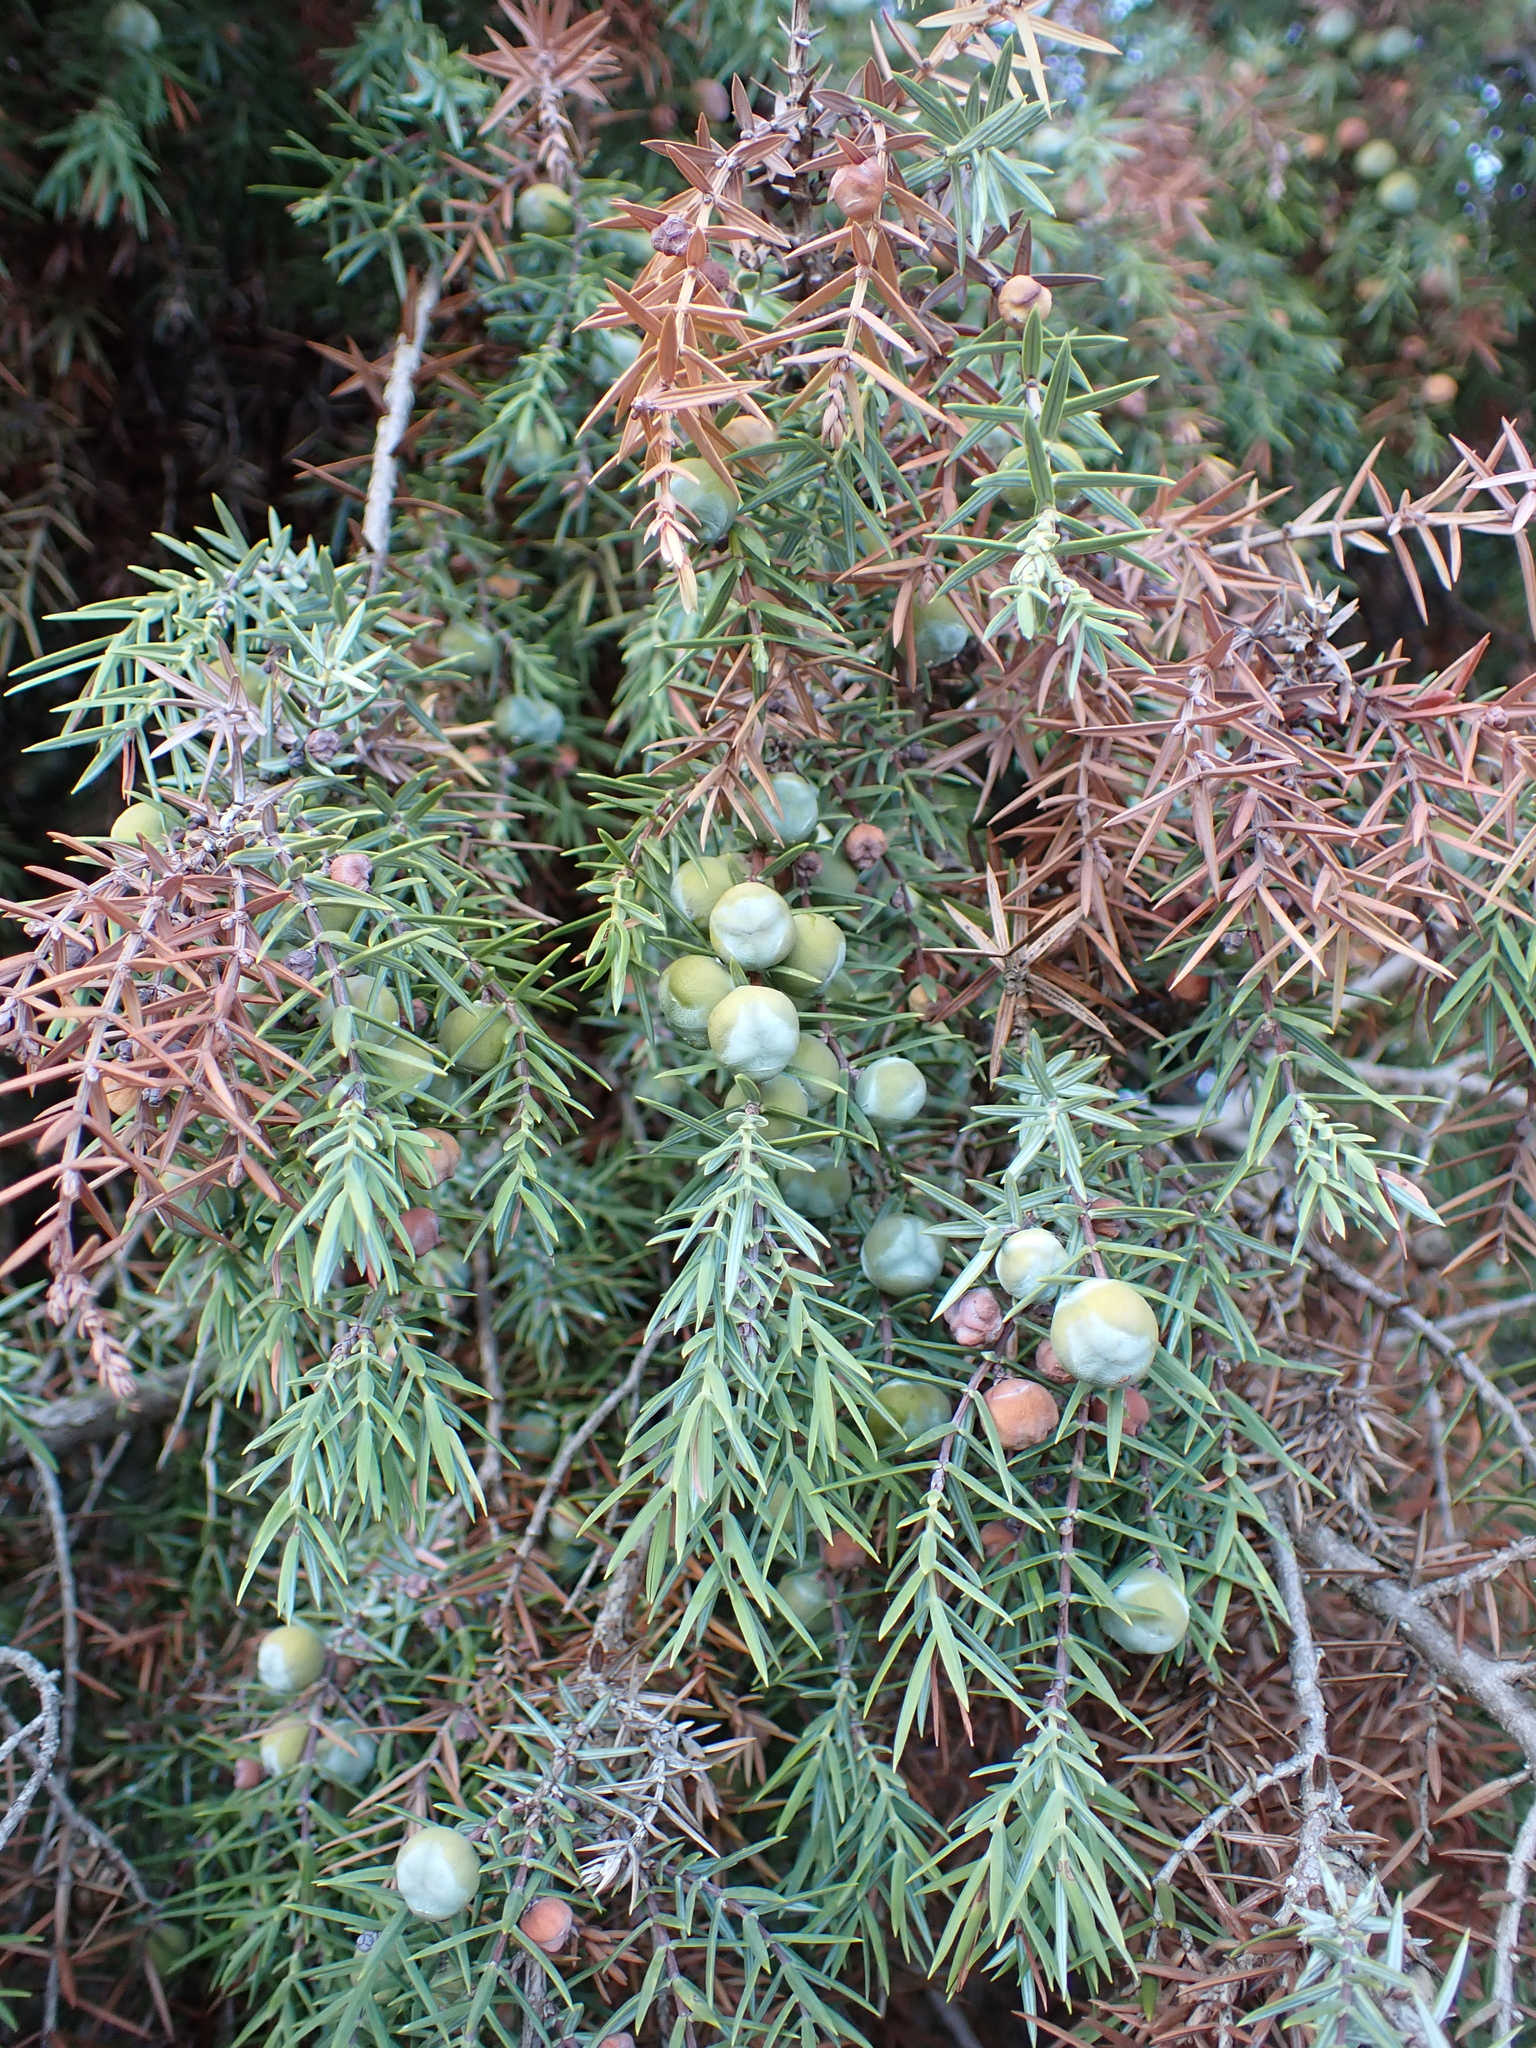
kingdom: Plantae
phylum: Tracheophyta
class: Pinopsida
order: Pinales
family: Cupressaceae
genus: Juniperus
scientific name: Juniperus oxycedrus
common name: Prickly juniper
